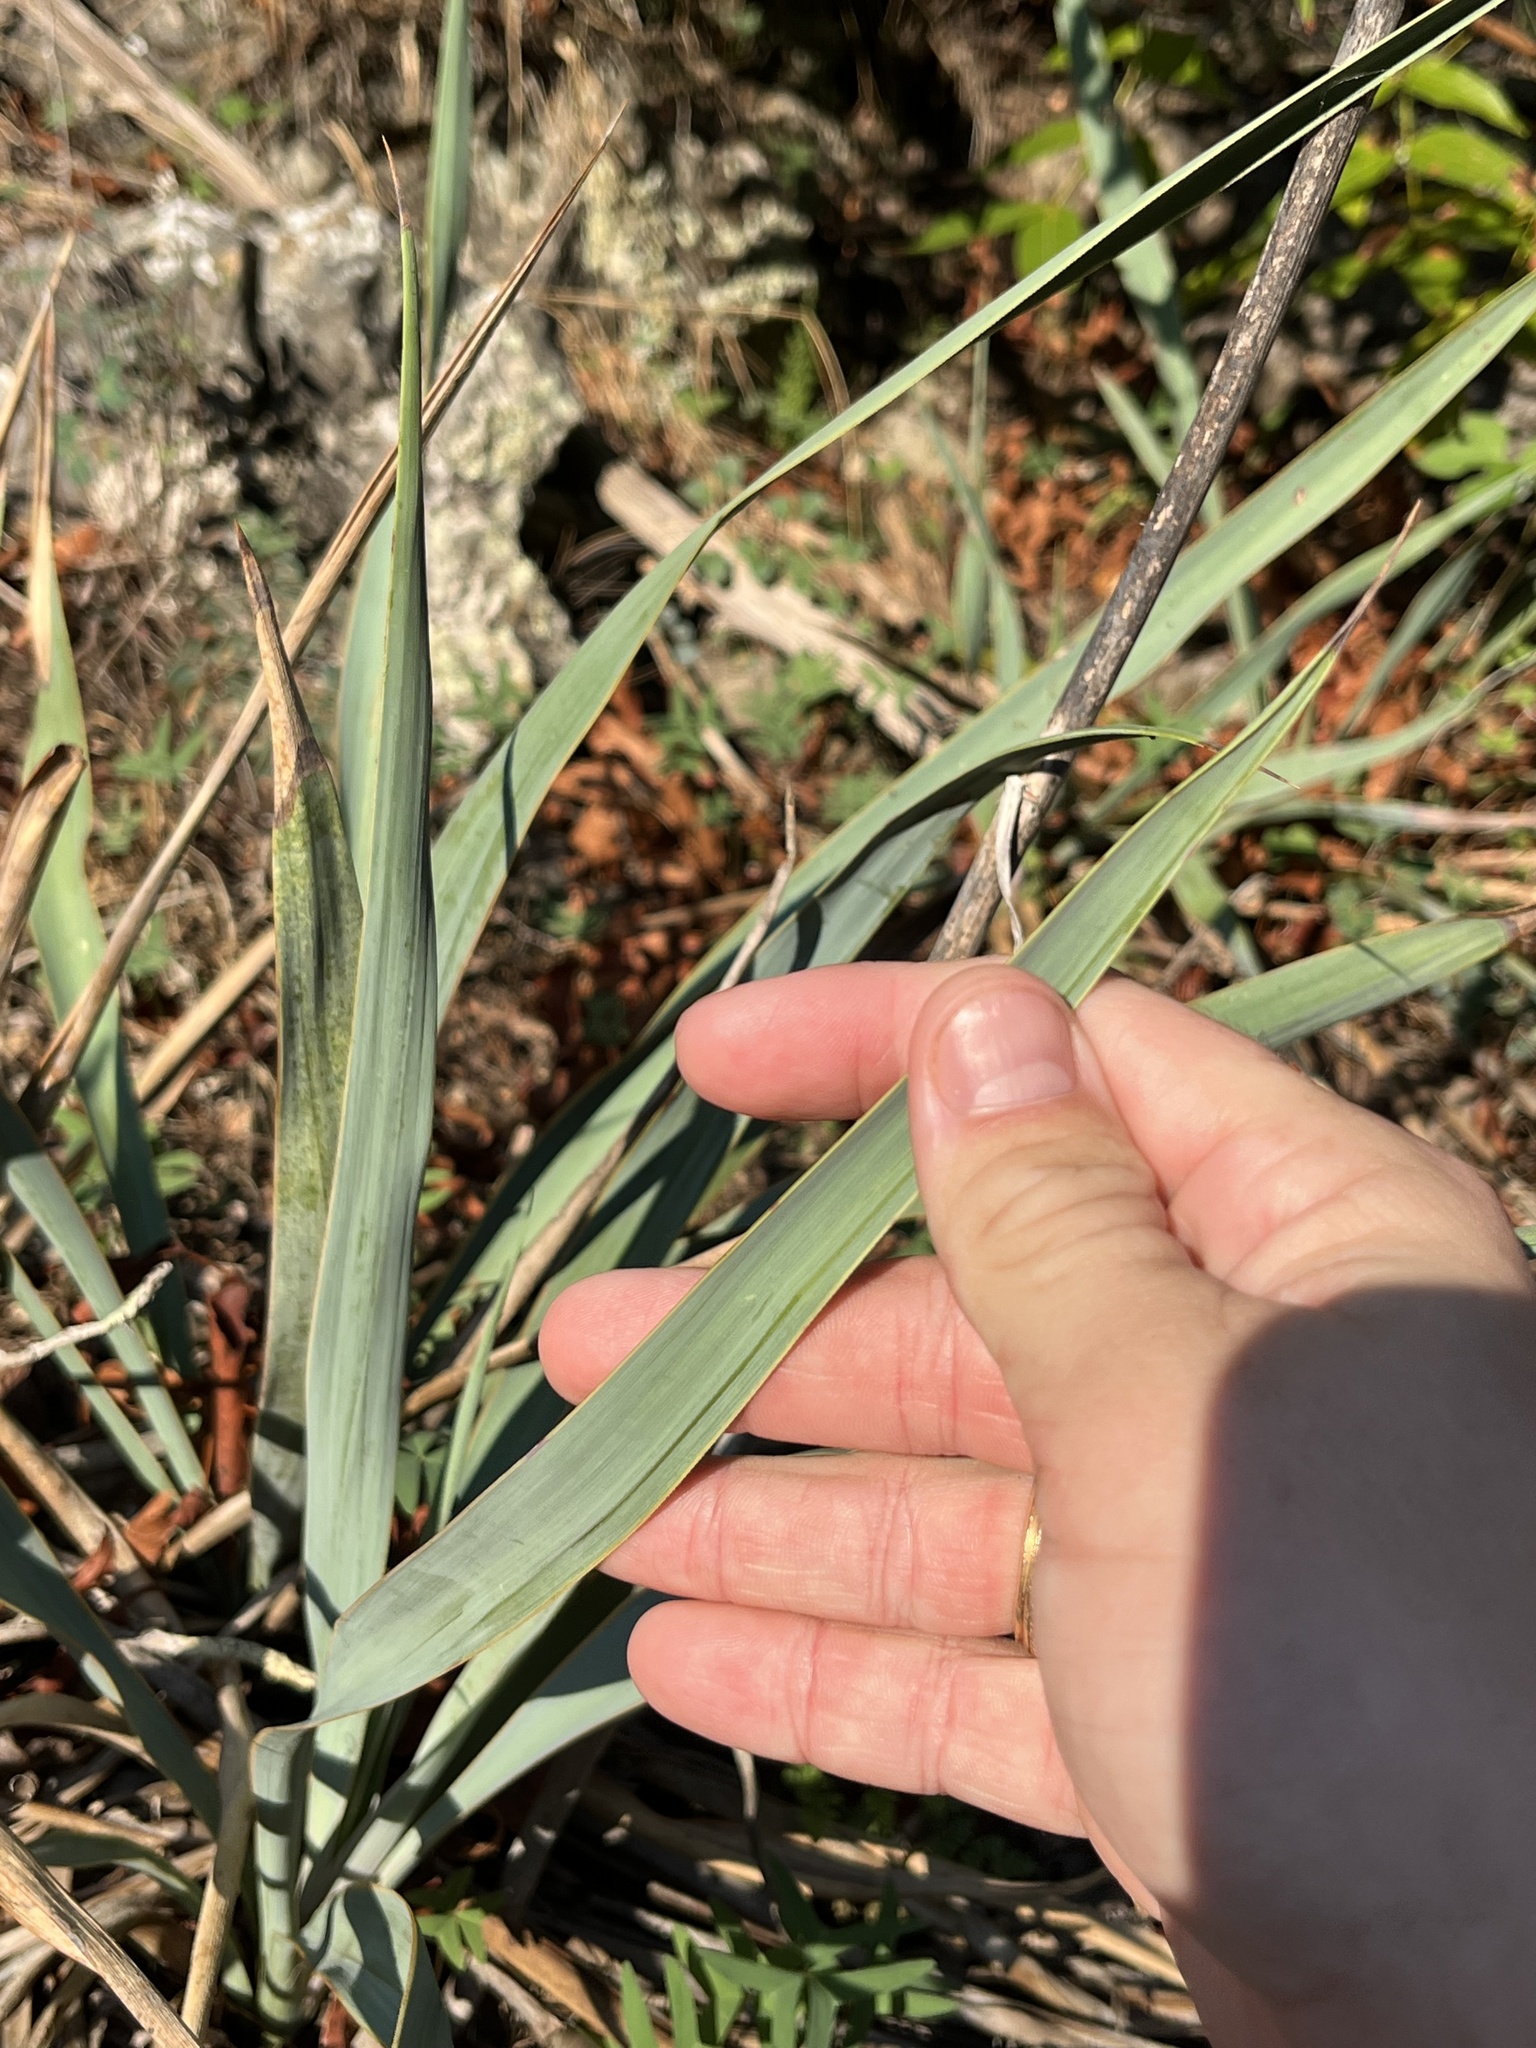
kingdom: Plantae
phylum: Tracheophyta
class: Liliopsida
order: Asparagales
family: Asparagaceae
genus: Yucca
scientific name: Yucca pallida
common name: Pale leaf yucca
